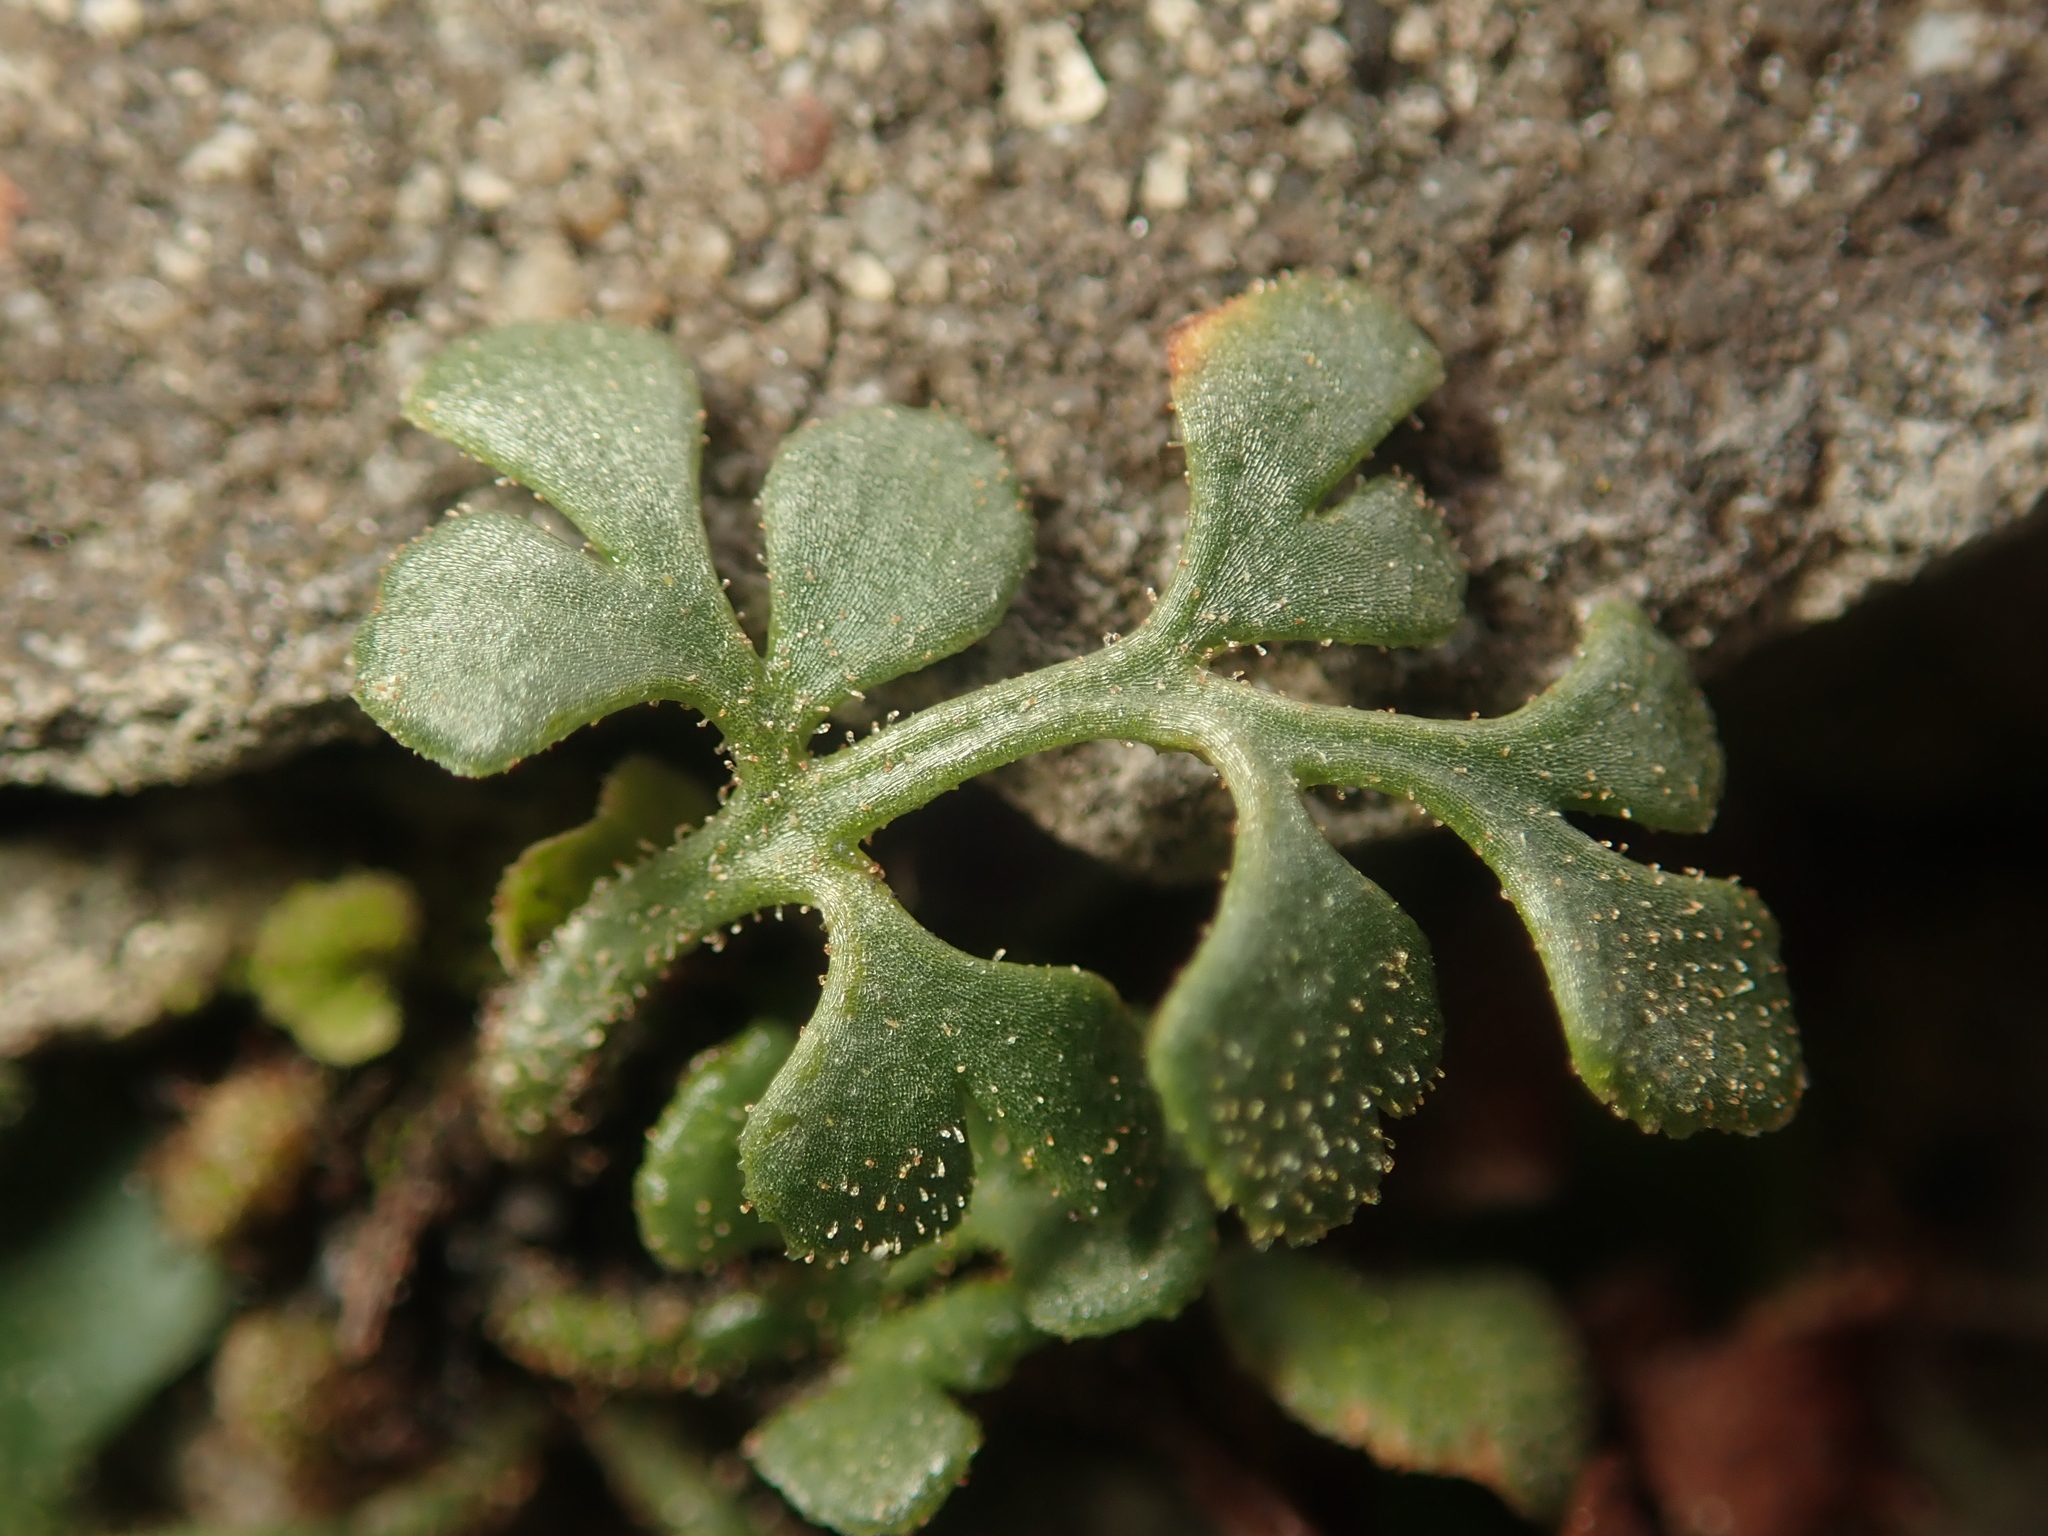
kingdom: Plantae
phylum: Tracheophyta
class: Polypodiopsida
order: Polypodiales
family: Aspleniaceae
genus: Asplenium
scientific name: Asplenium ruta-muraria
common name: Wall-rue
